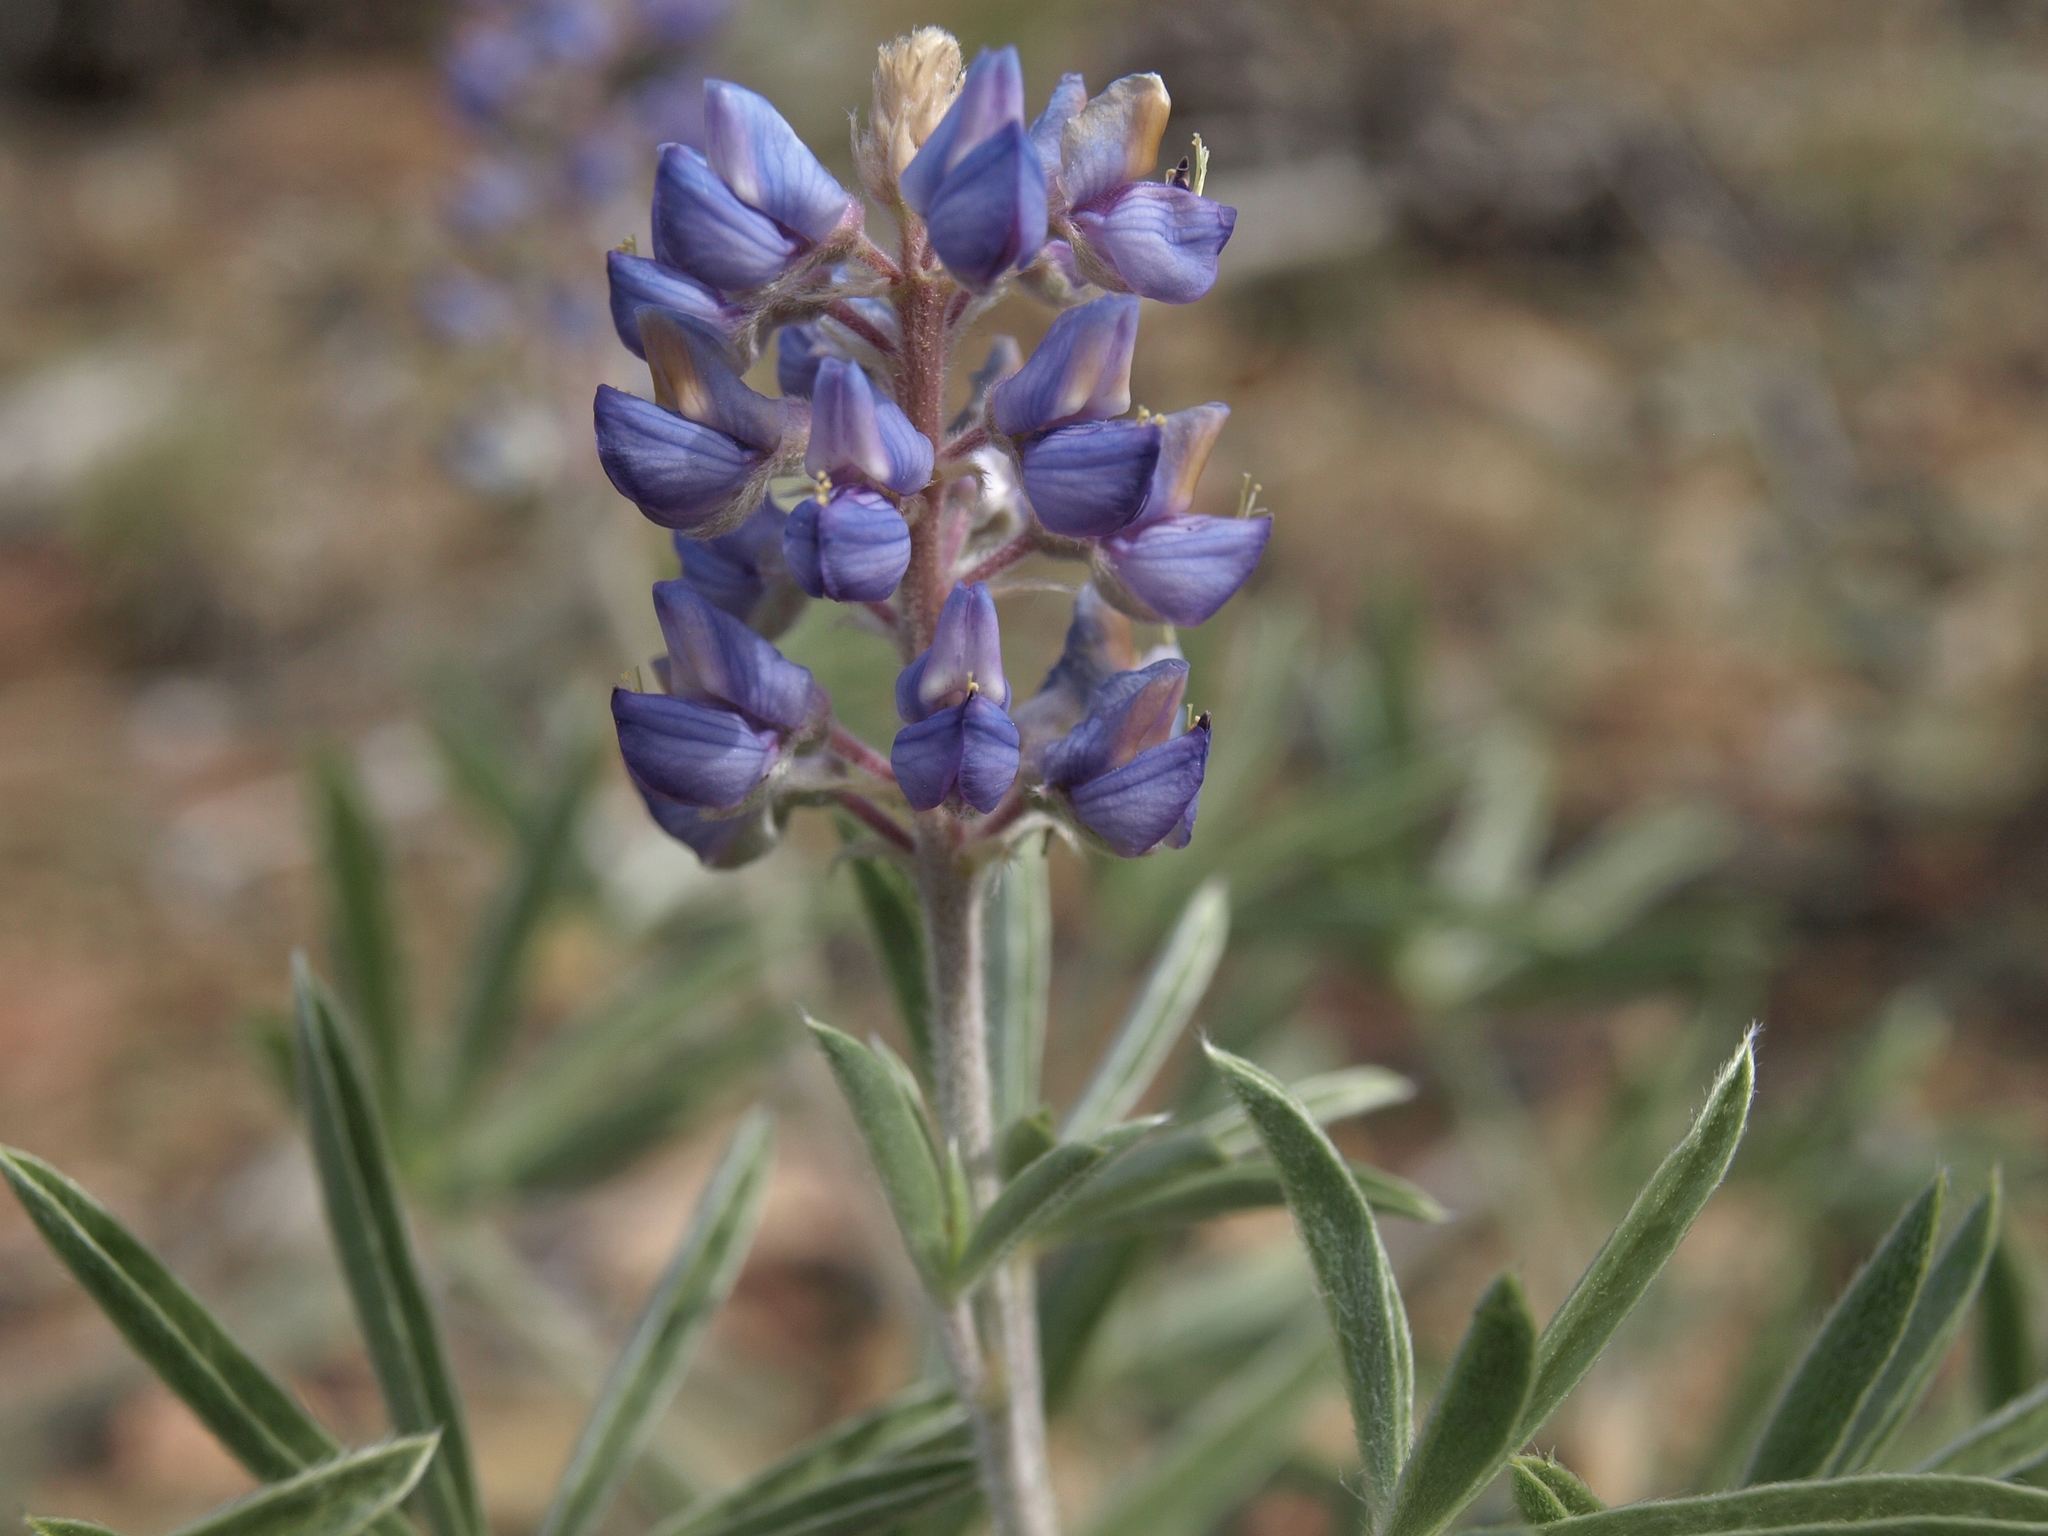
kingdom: Plantae
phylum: Tracheophyta
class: Magnoliopsida
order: Fabales
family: Fabaceae
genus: Lupinus
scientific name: Lupinus argenteus
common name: Silvery lupine
